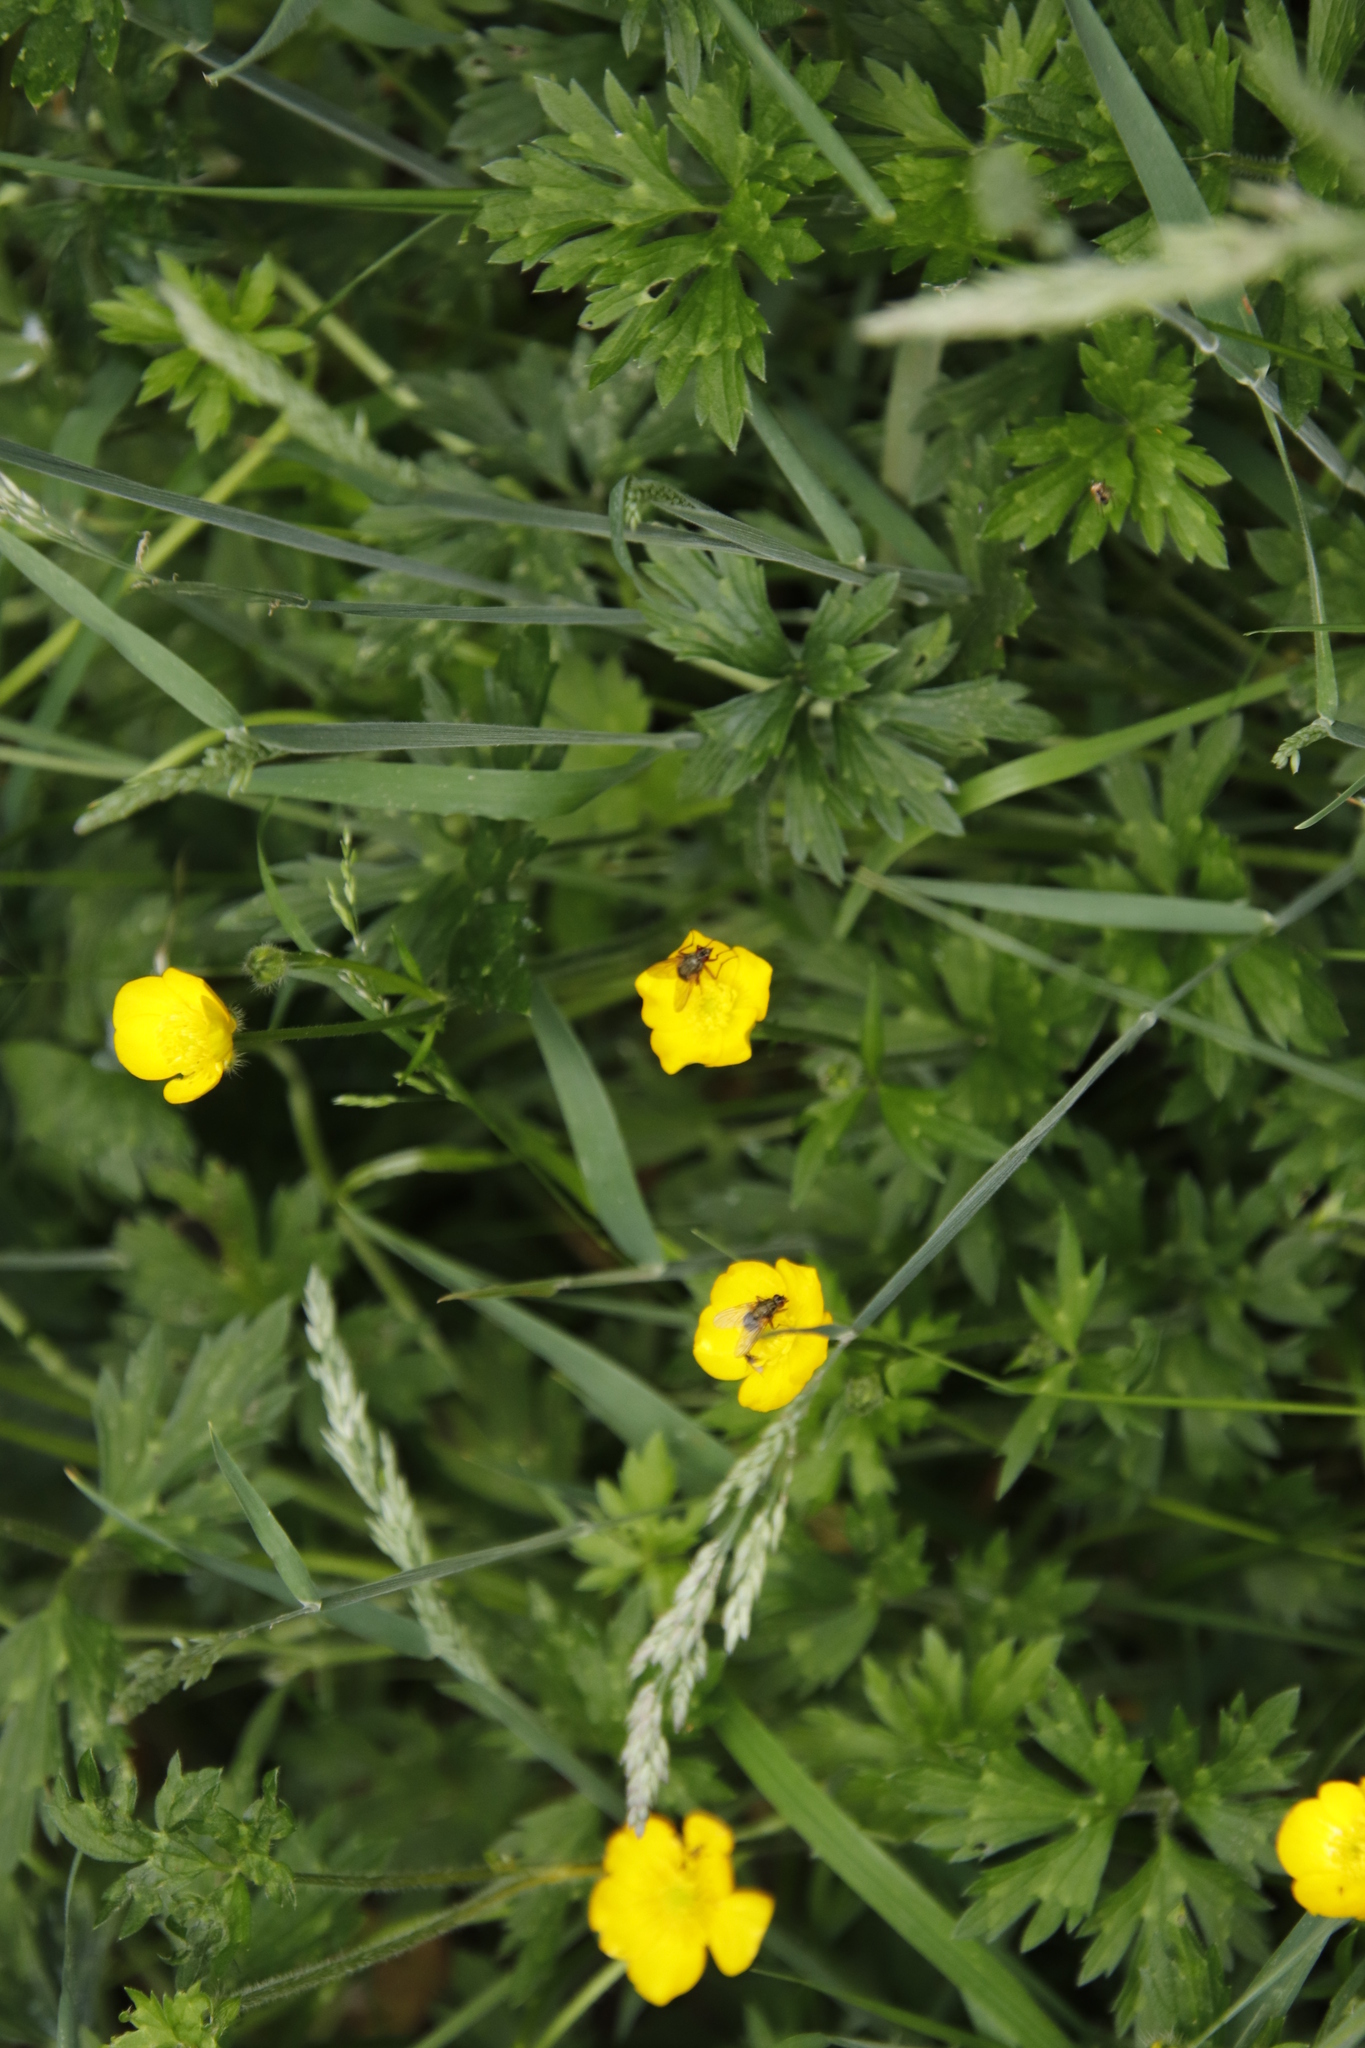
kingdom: Plantae
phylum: Tracheophyta
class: Magnoliopsida
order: Ranunculales
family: Ranunculaceae
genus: Ranunculus
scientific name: Ranunculus repens
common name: Creeping buttercup
